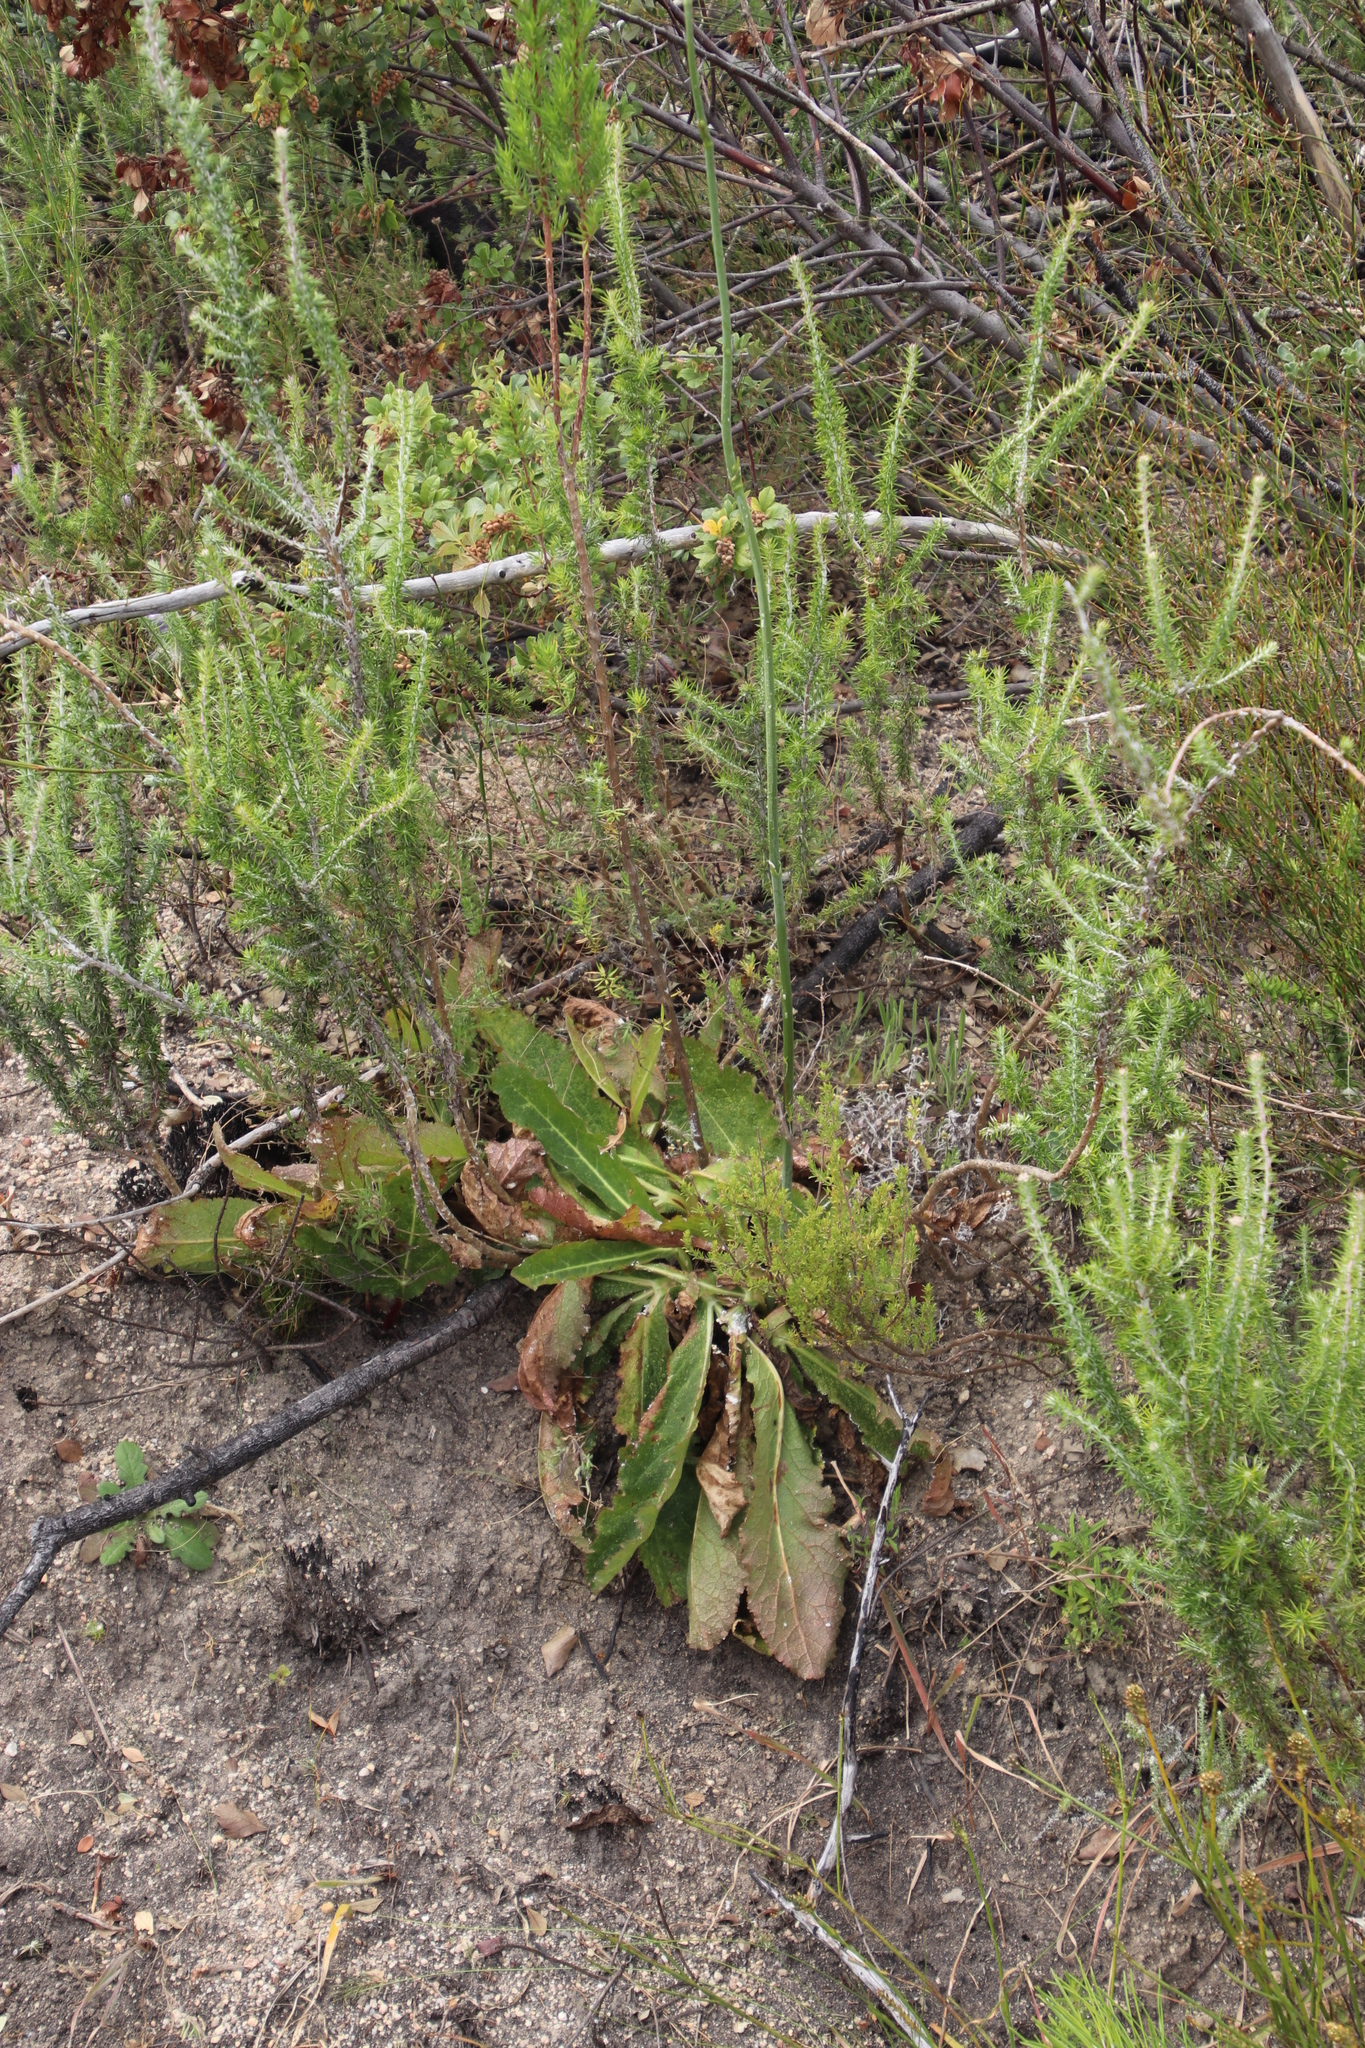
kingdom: Plantae
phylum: Tracheophyta
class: Magnoliopsida
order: Apiales
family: Apiaceae
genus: Lichtensteinia
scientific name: Lichtensteinia trifida
